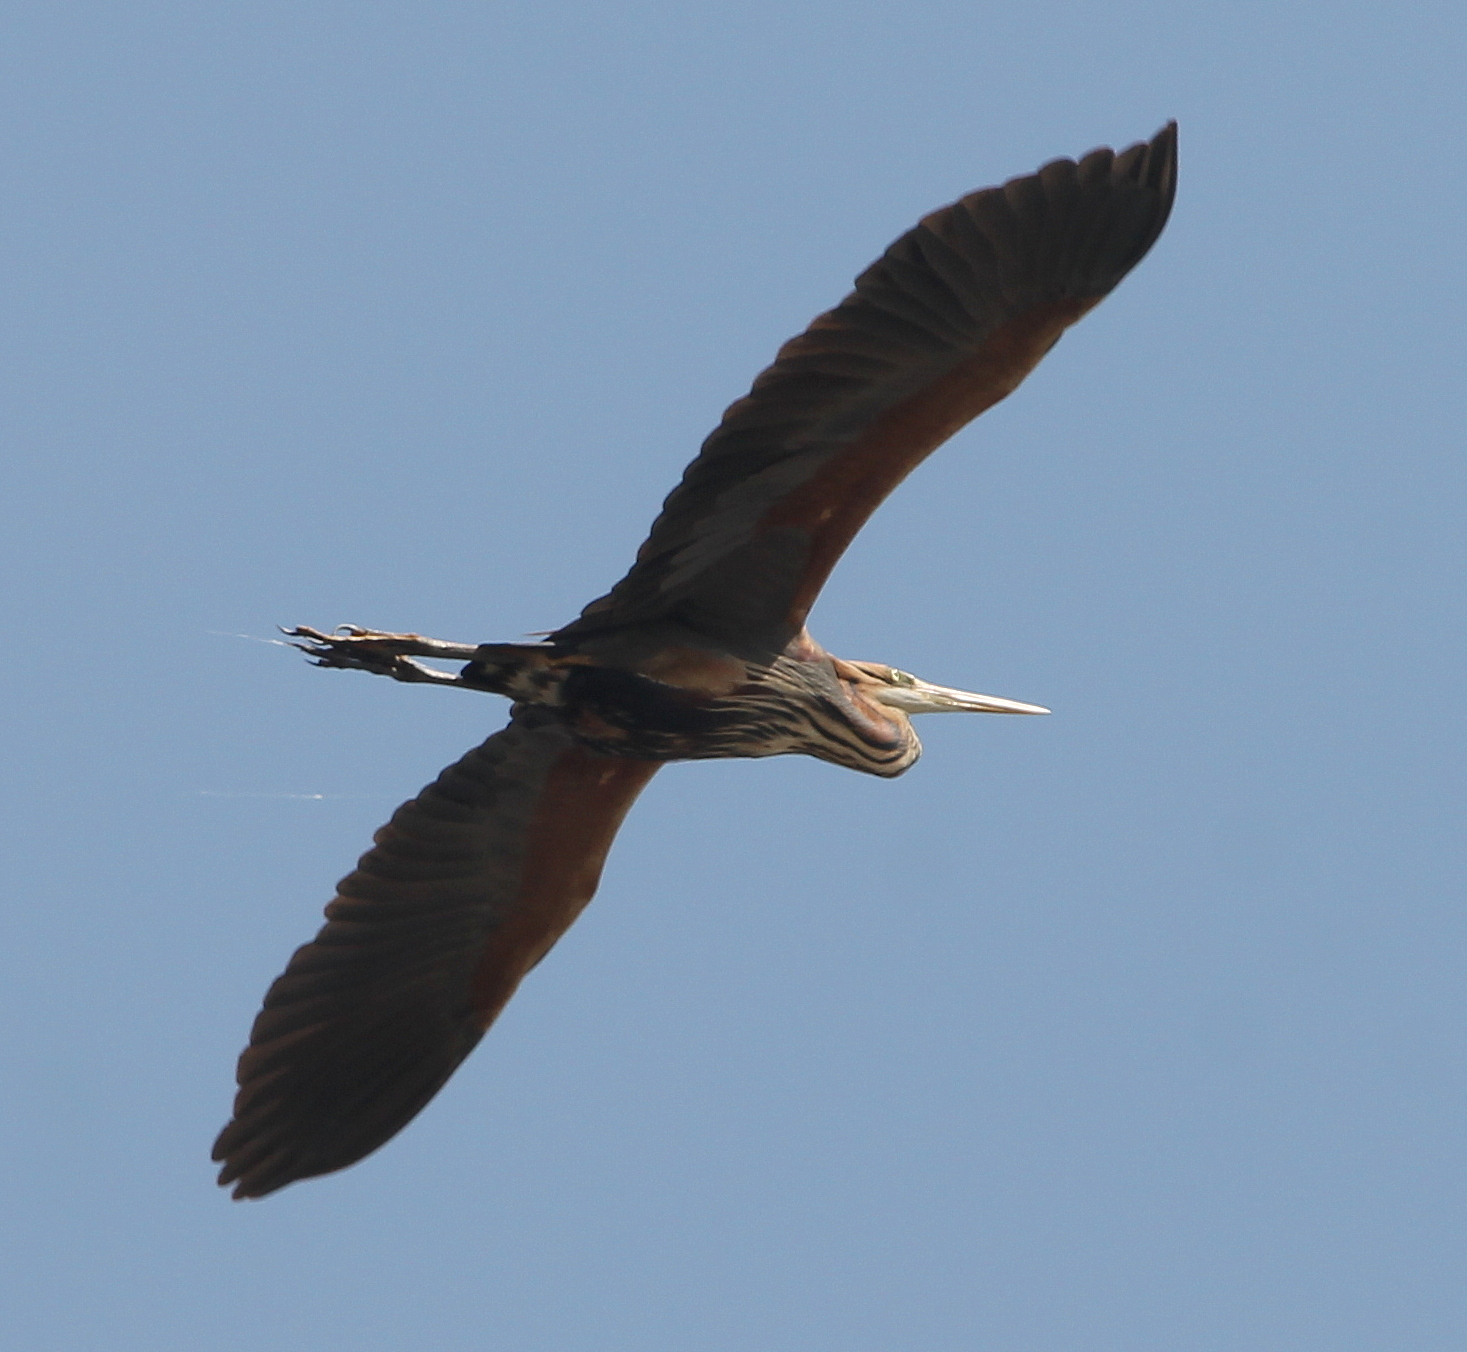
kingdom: Animalia
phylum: Chordata
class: Aves
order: Pelecaniformes
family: Ardeidae
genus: Ardea
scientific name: Ardea purpurea
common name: Purple heron
